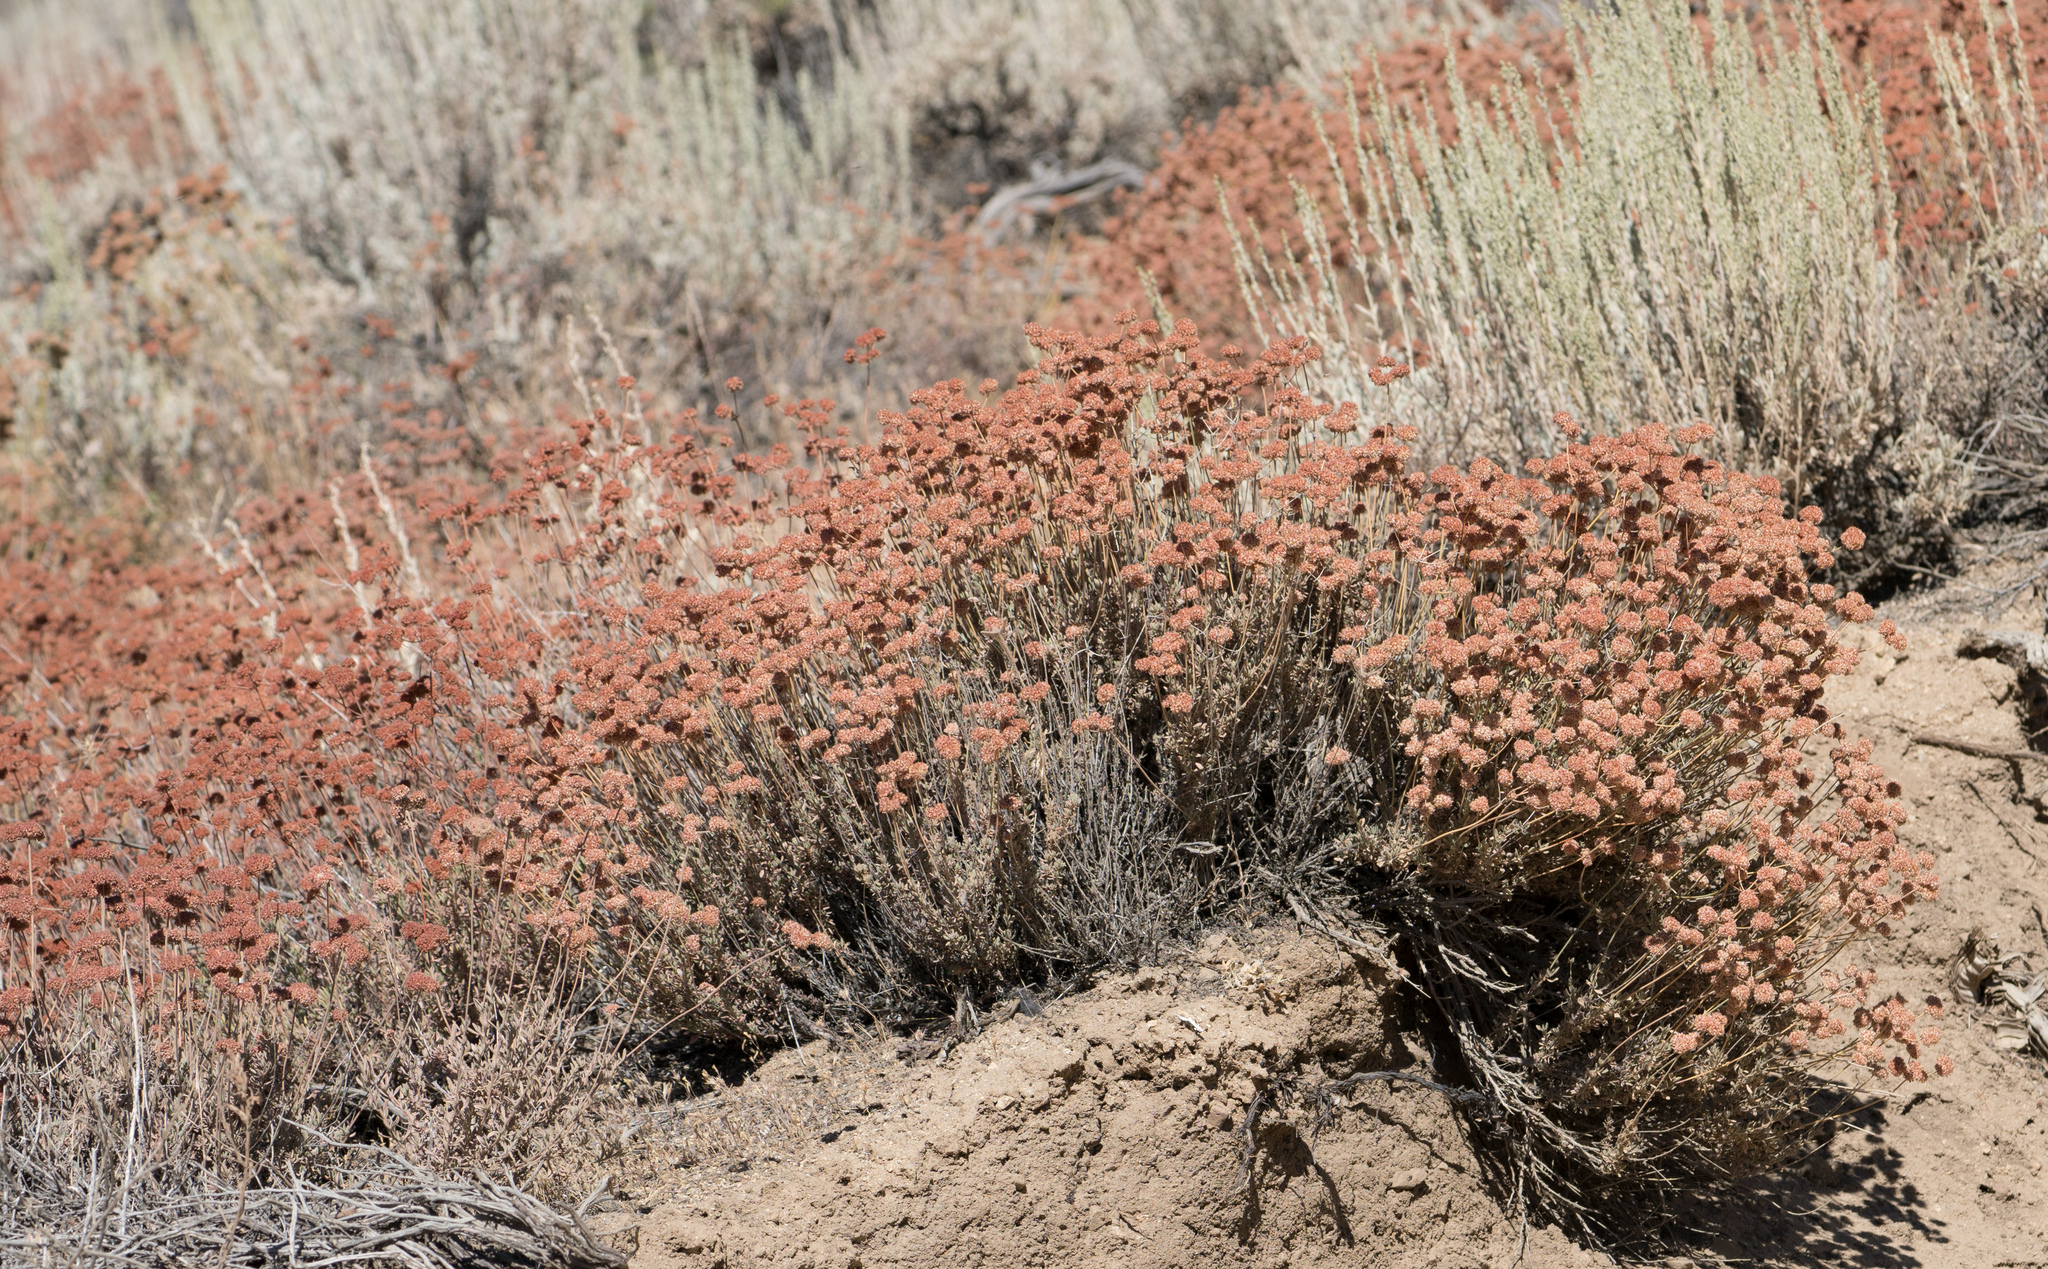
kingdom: Plantae
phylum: Tracheophyta
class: Magnoliopsida
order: Caryophyllales
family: Polygonaceae
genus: Eriogonum
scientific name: Eriogonum fasciculatum
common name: California wild buckwheat
